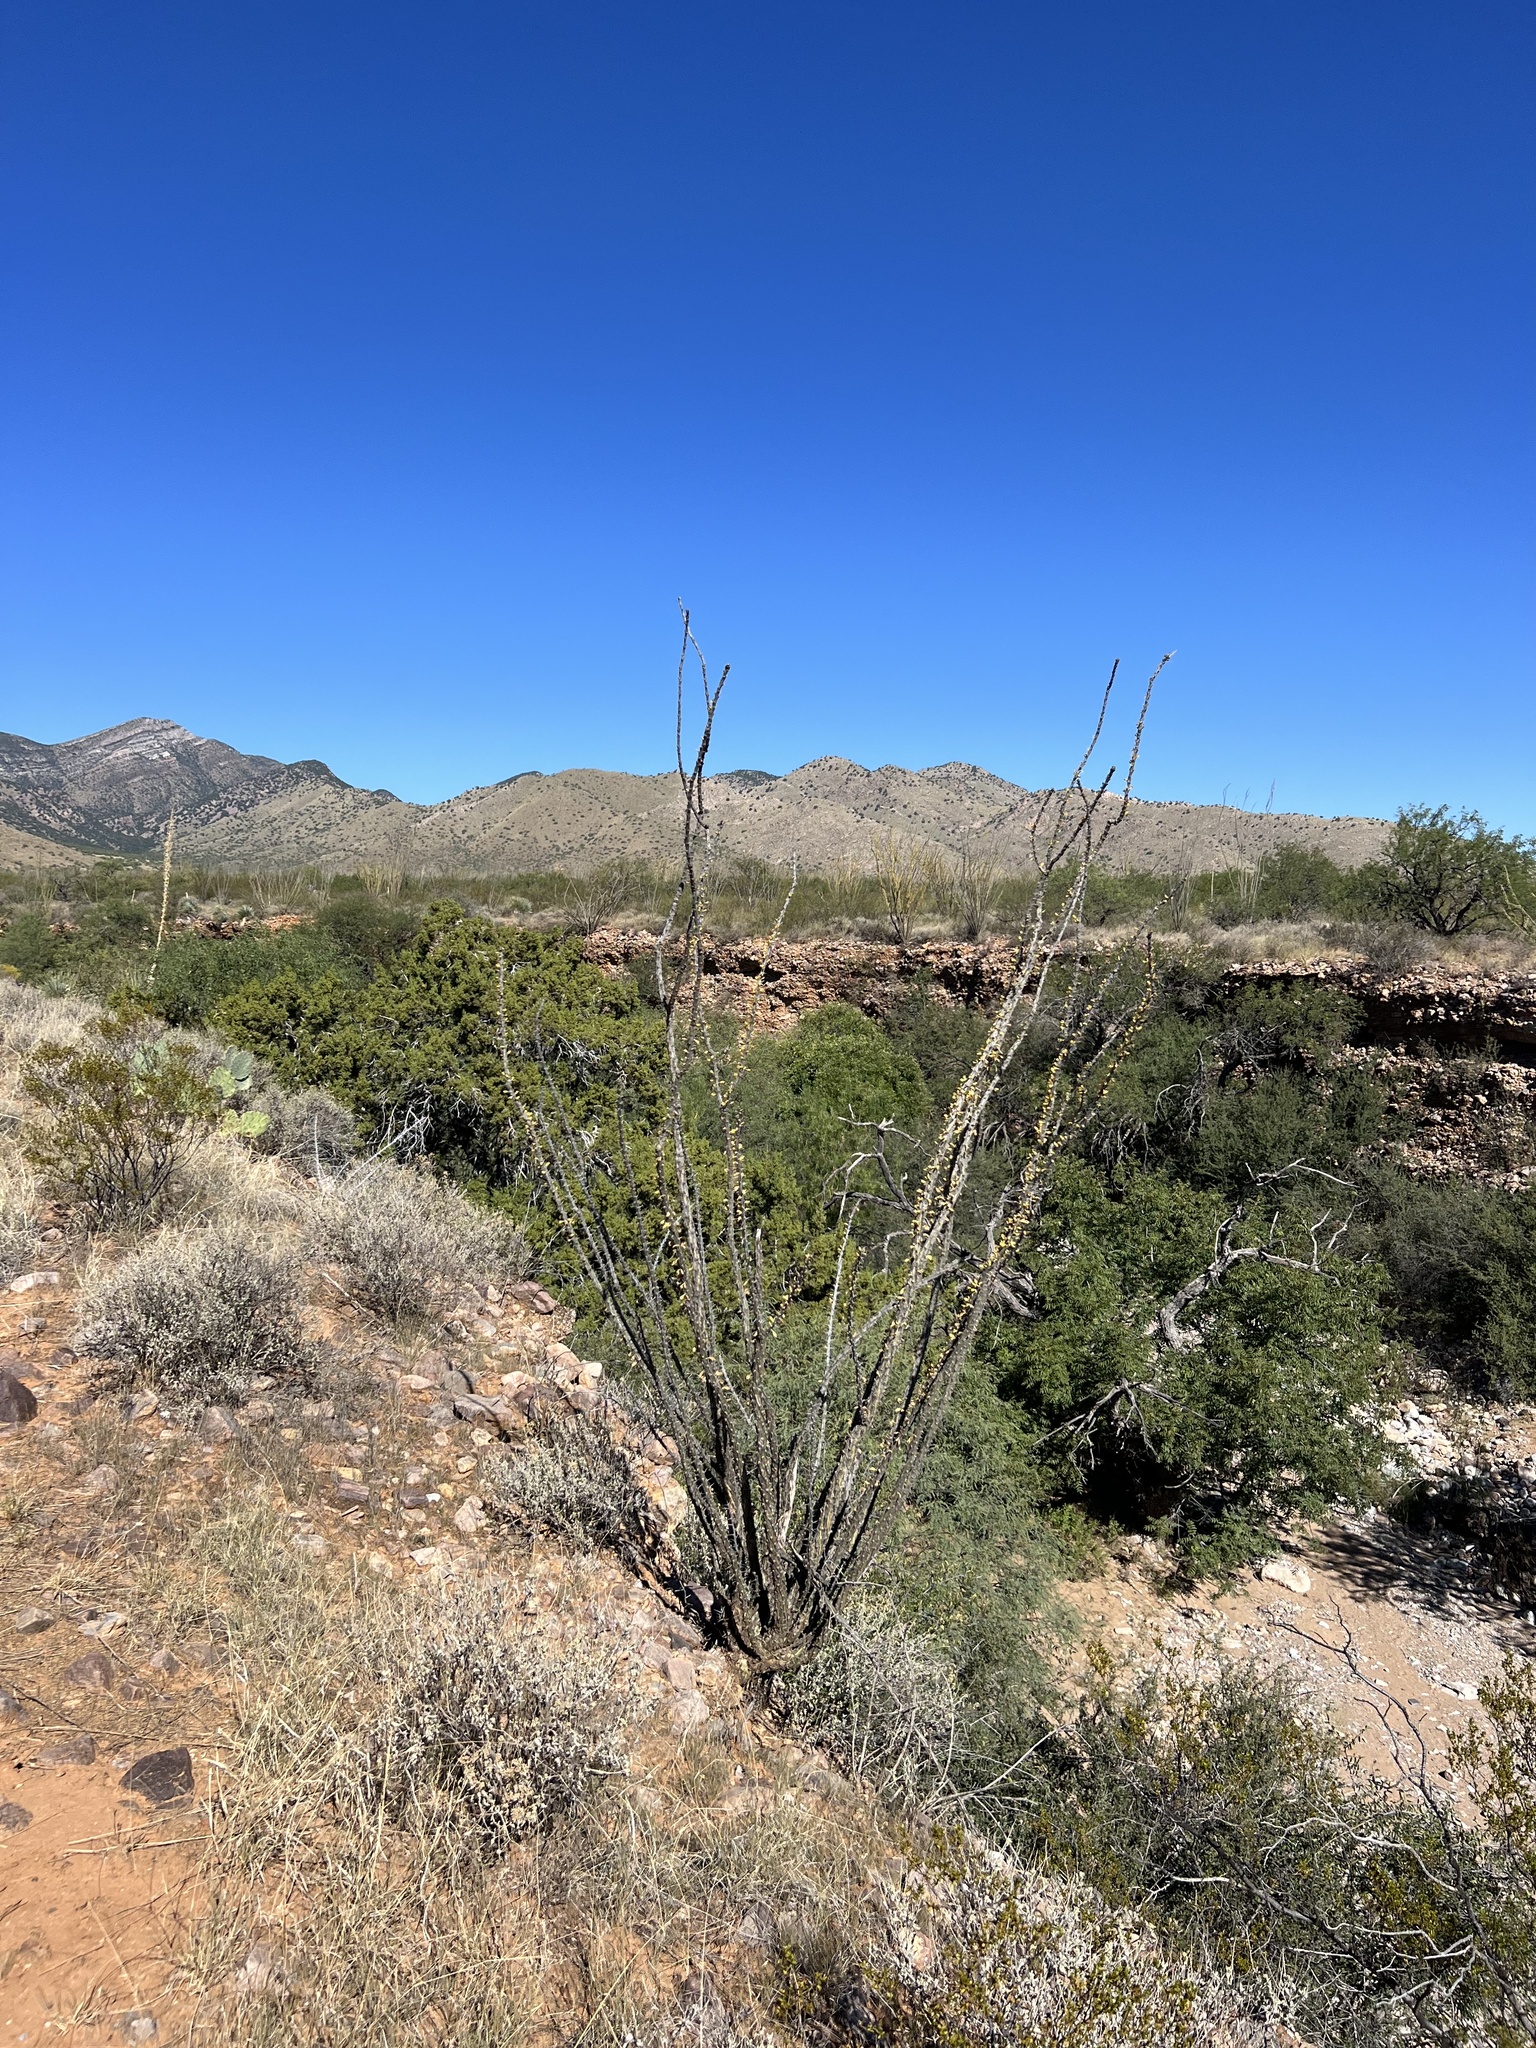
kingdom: Plantae
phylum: Tracheophyta
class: Magnoliopsida
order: Ericales
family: Fouquieriaceae
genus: Fouquieria
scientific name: Fouquieria splendens
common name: Vine-cactus
